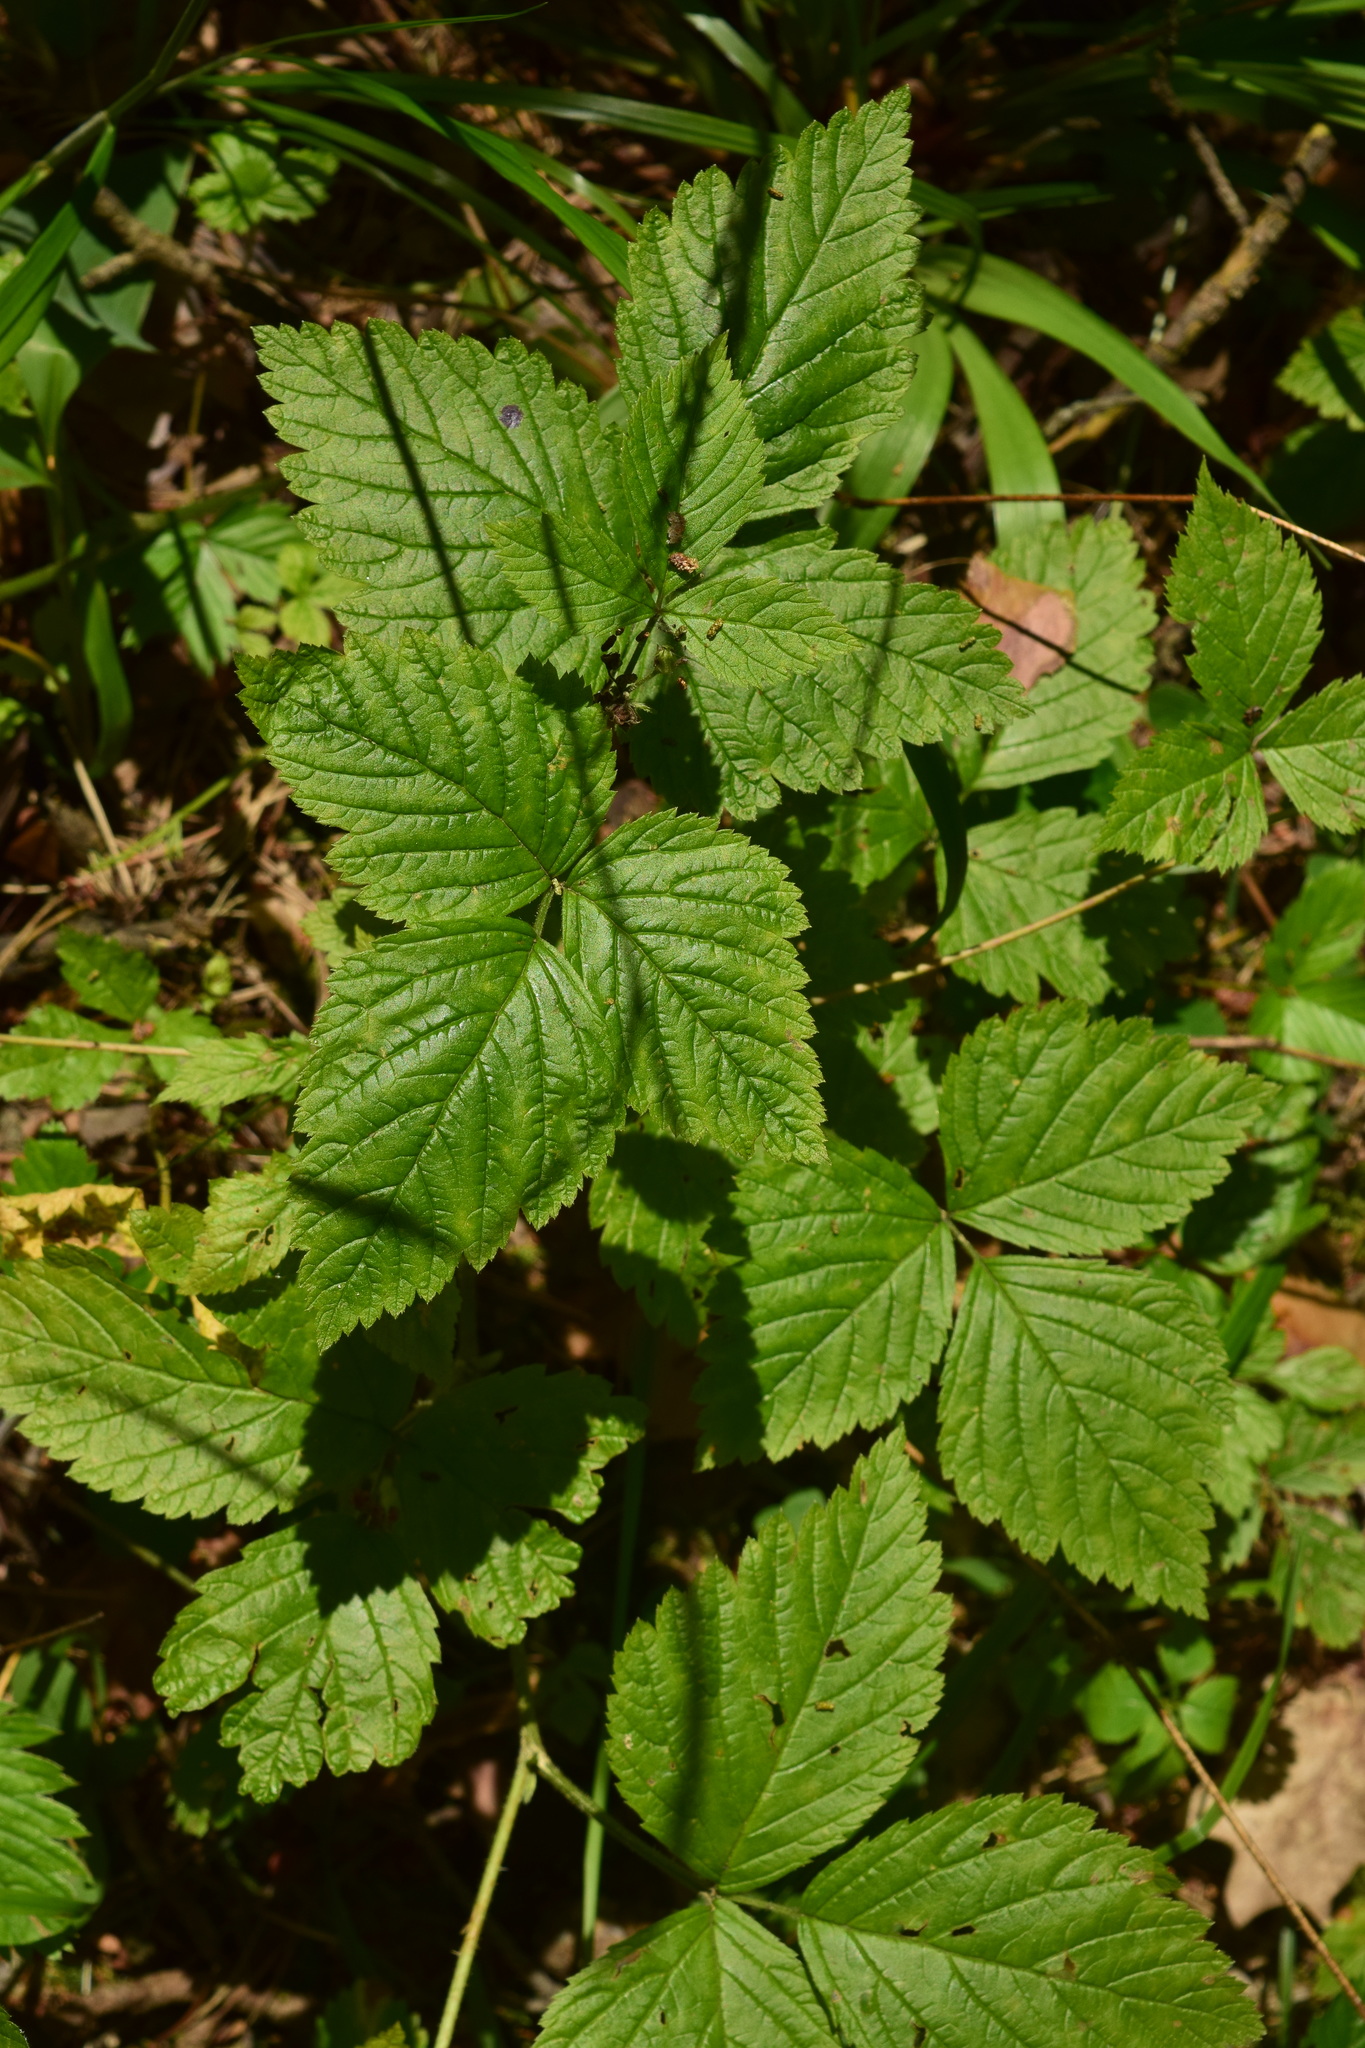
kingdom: Plantae
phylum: Tracheophyta
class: Magnoliopsida
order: Rosales
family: Rosaceae
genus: Rubus
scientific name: Rubus saxatilis
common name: Stone bramble
